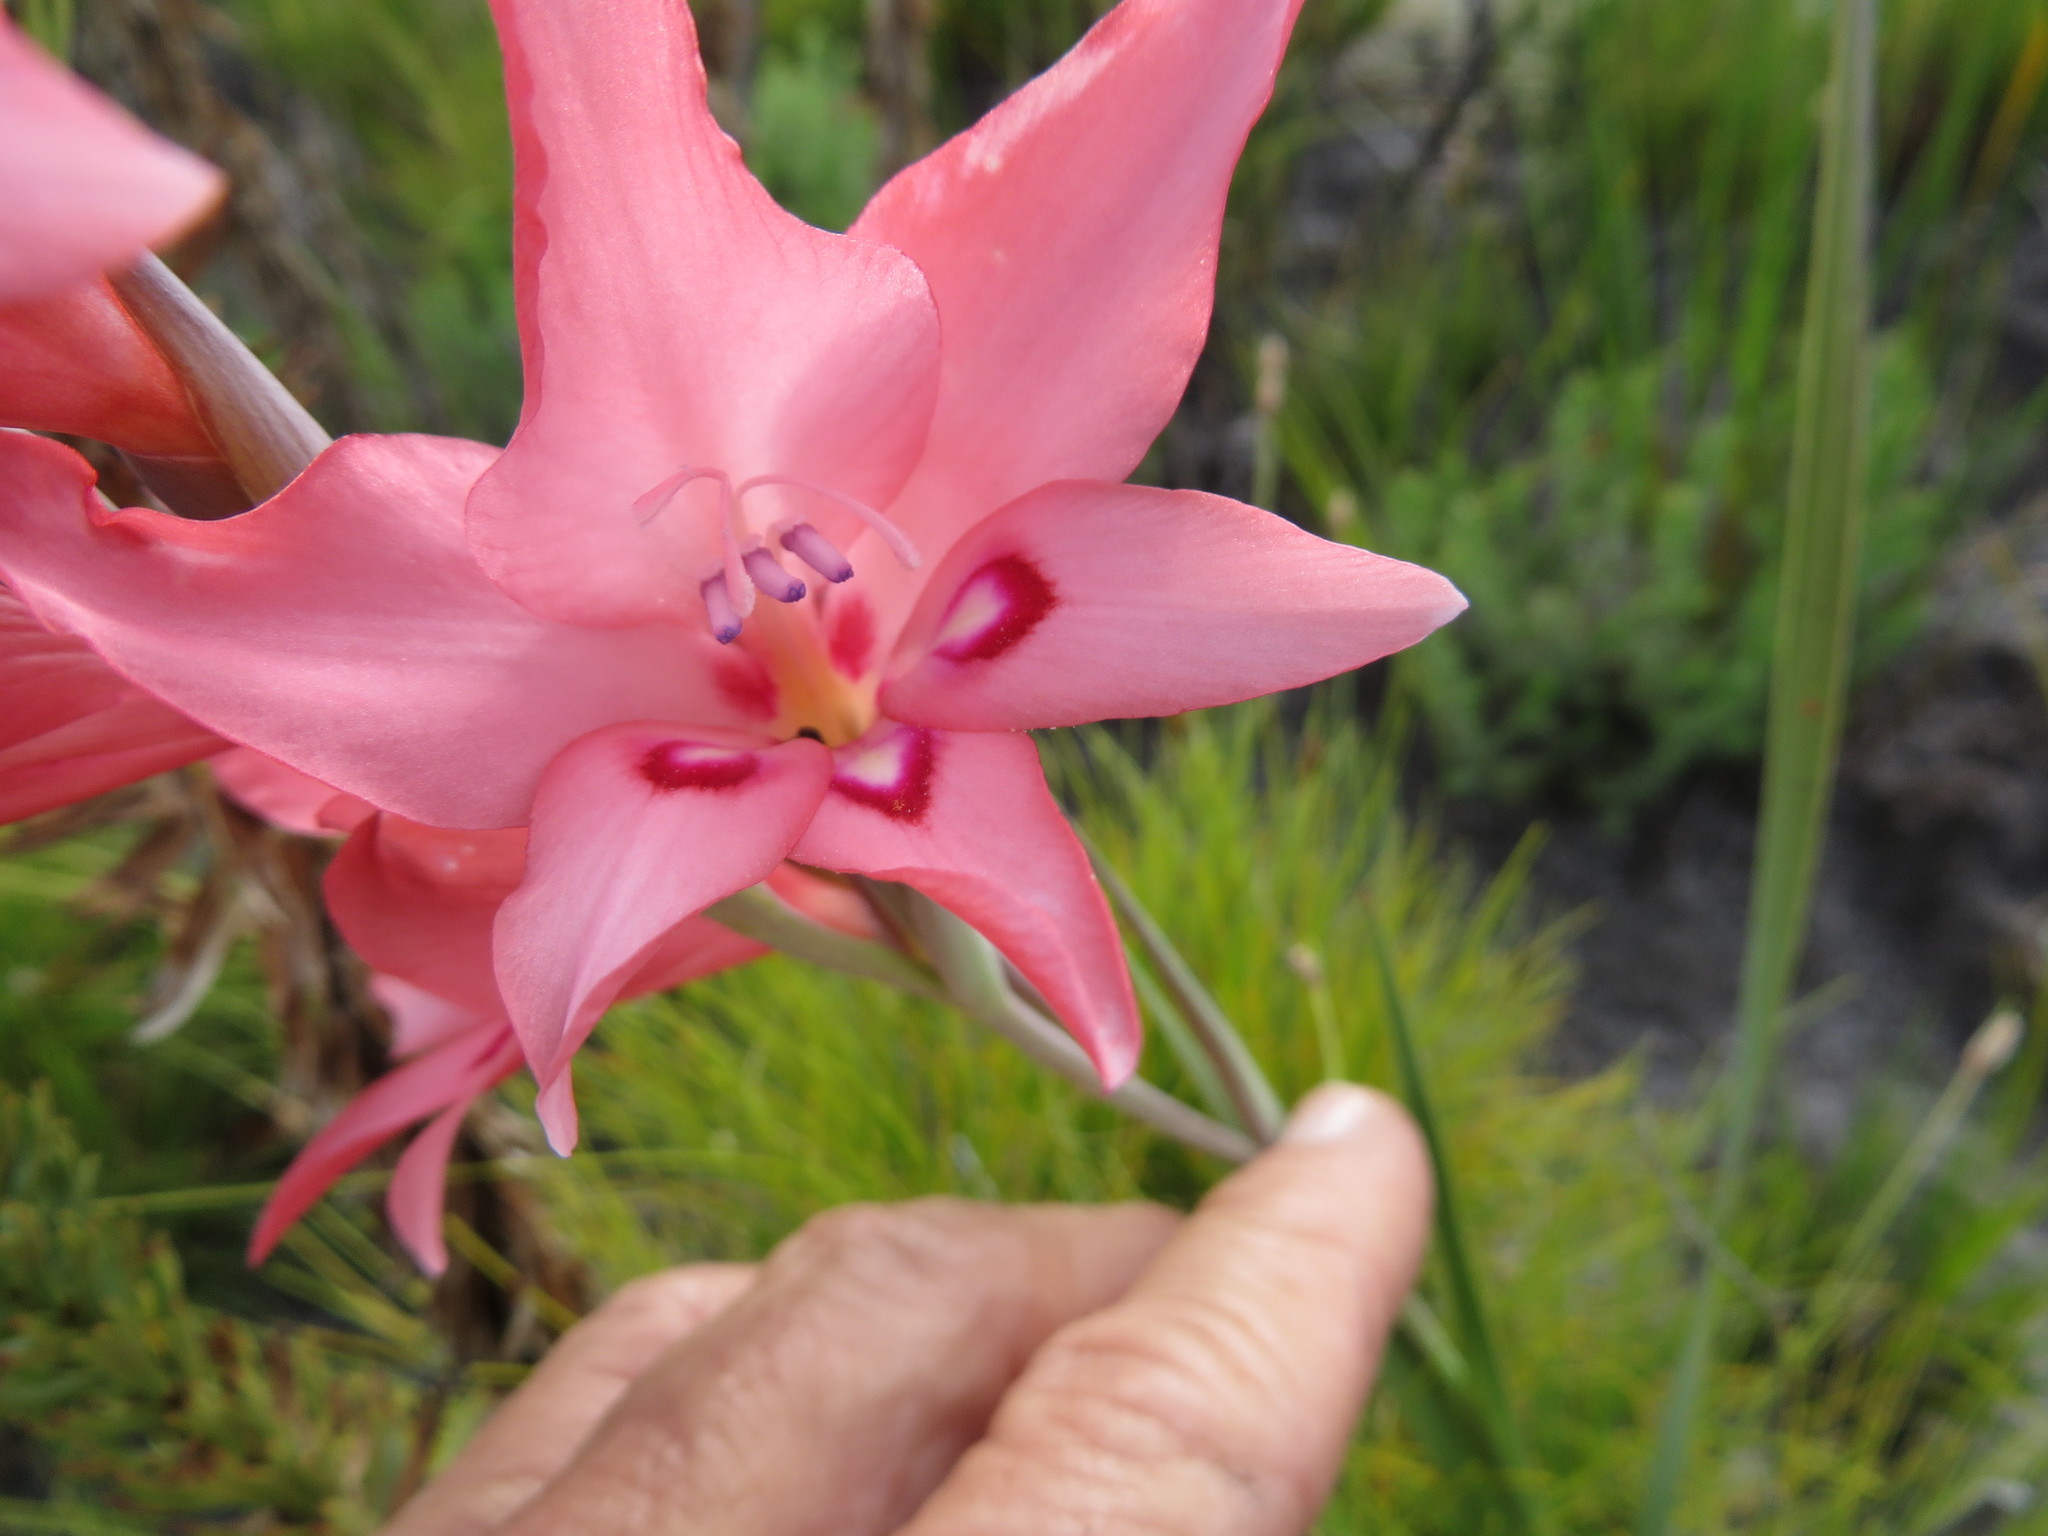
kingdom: Plantae
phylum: Tracheophyta
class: Liliopsida
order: Asparagales
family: Iridaceae
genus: Gladiolus
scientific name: Gladiolus carneus
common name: Painted-lady
